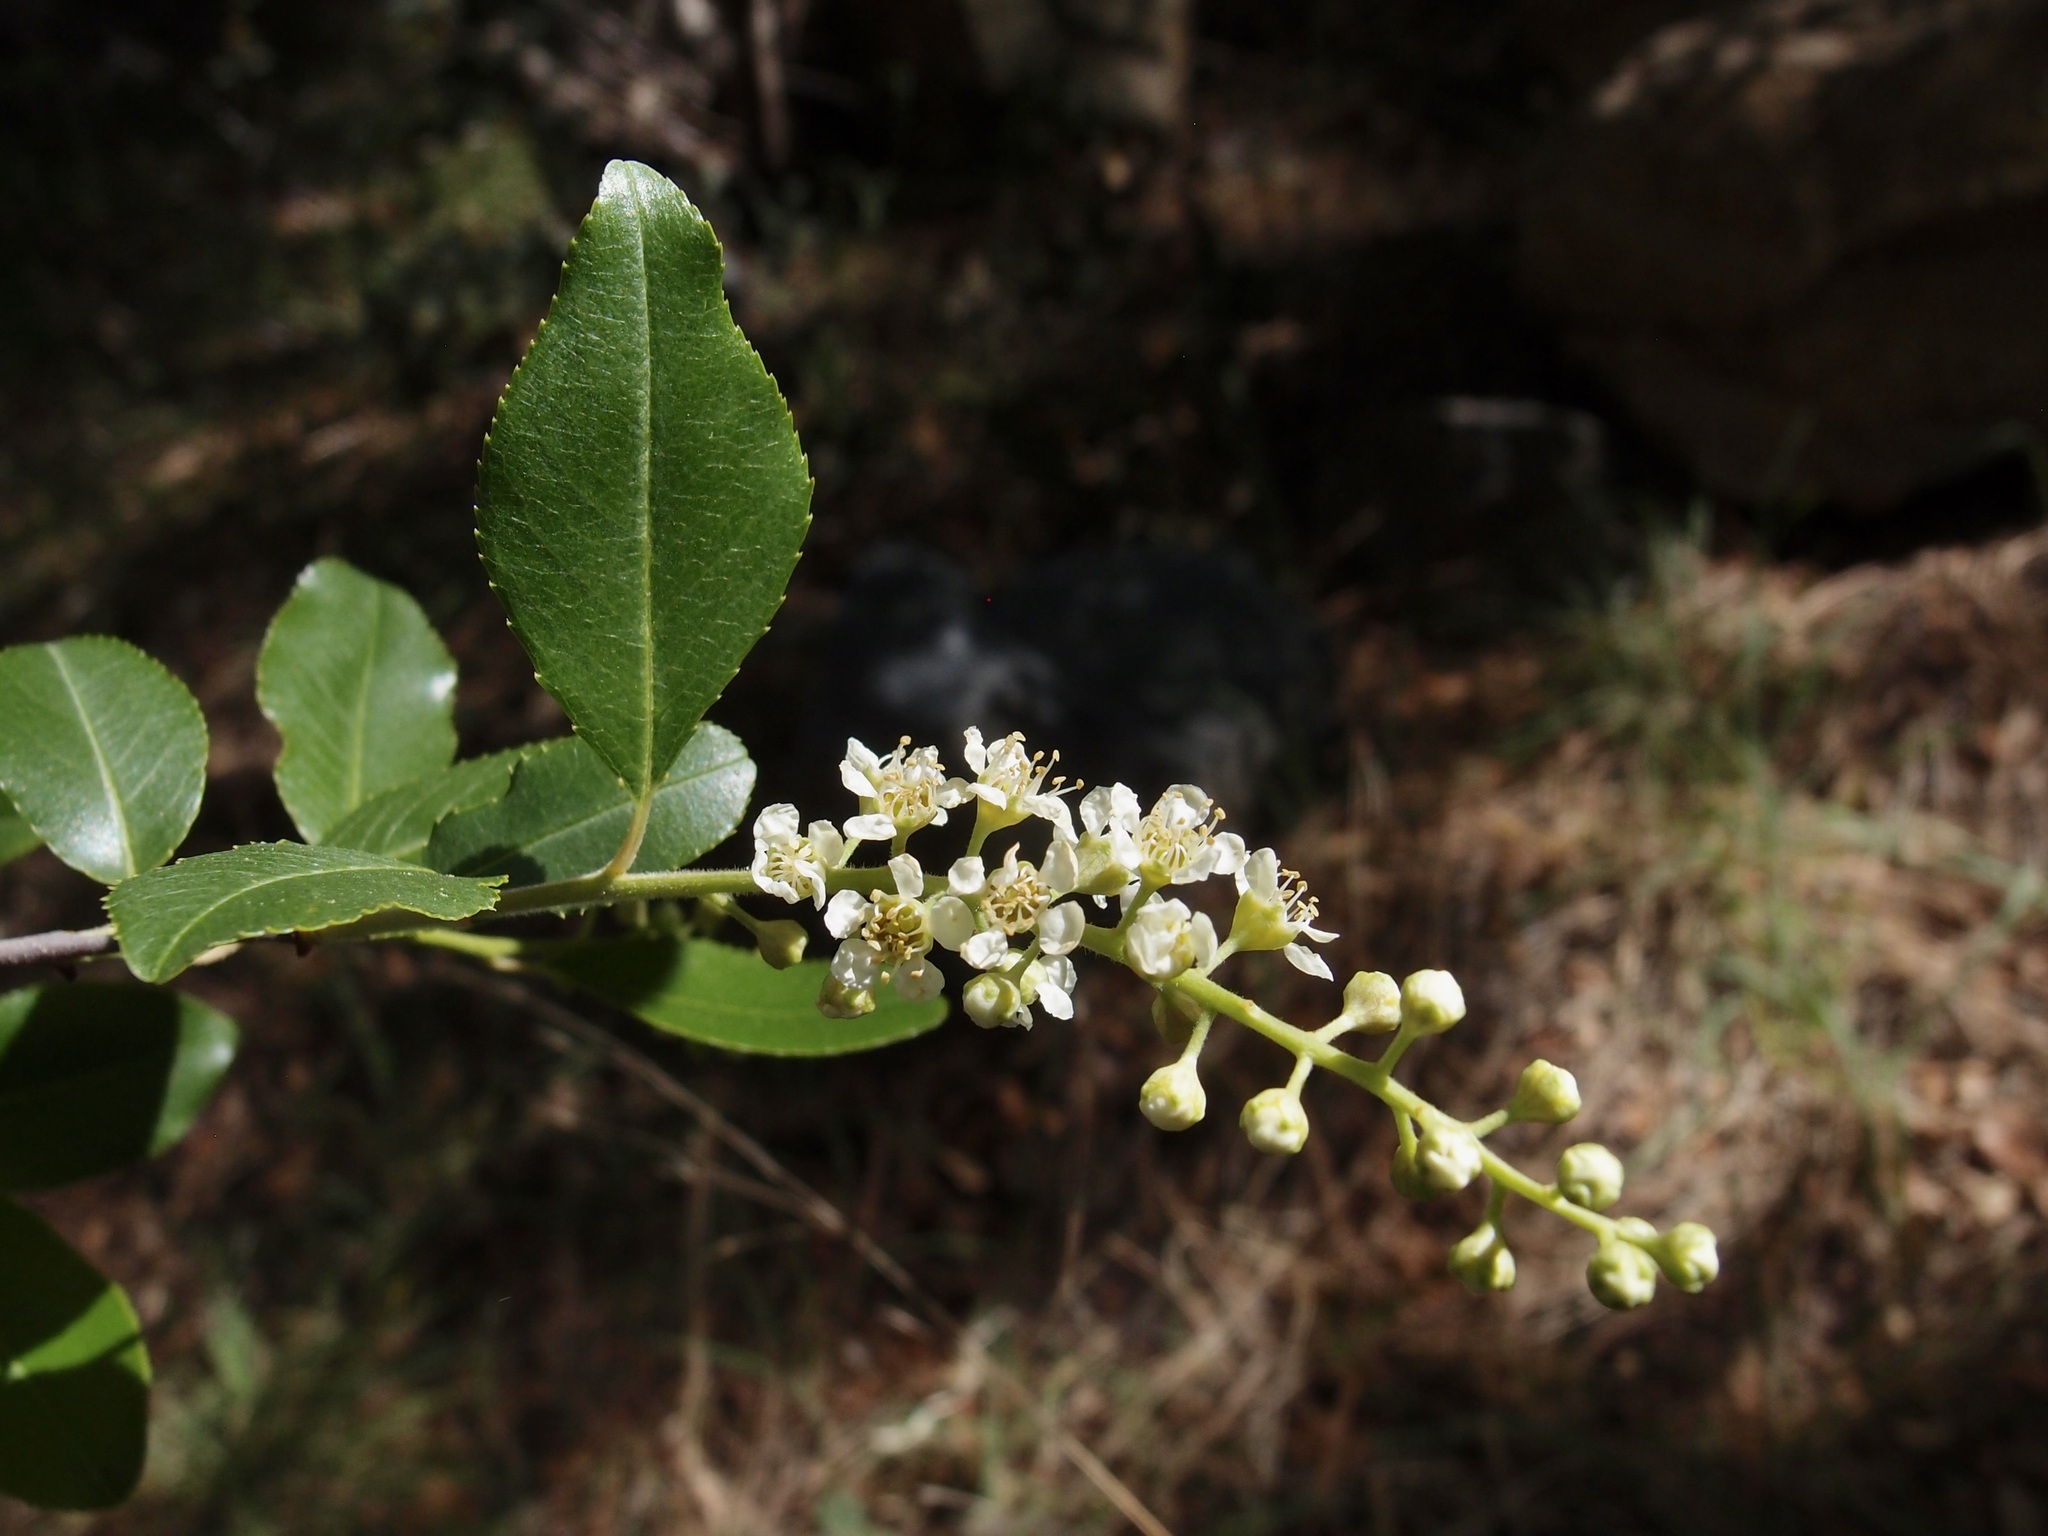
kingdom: Plantae
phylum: Tracheophyta
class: Magnoliopsida
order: Rosales
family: Rosaceae
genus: Prunus
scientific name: Prunus serotina
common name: Black cherry
